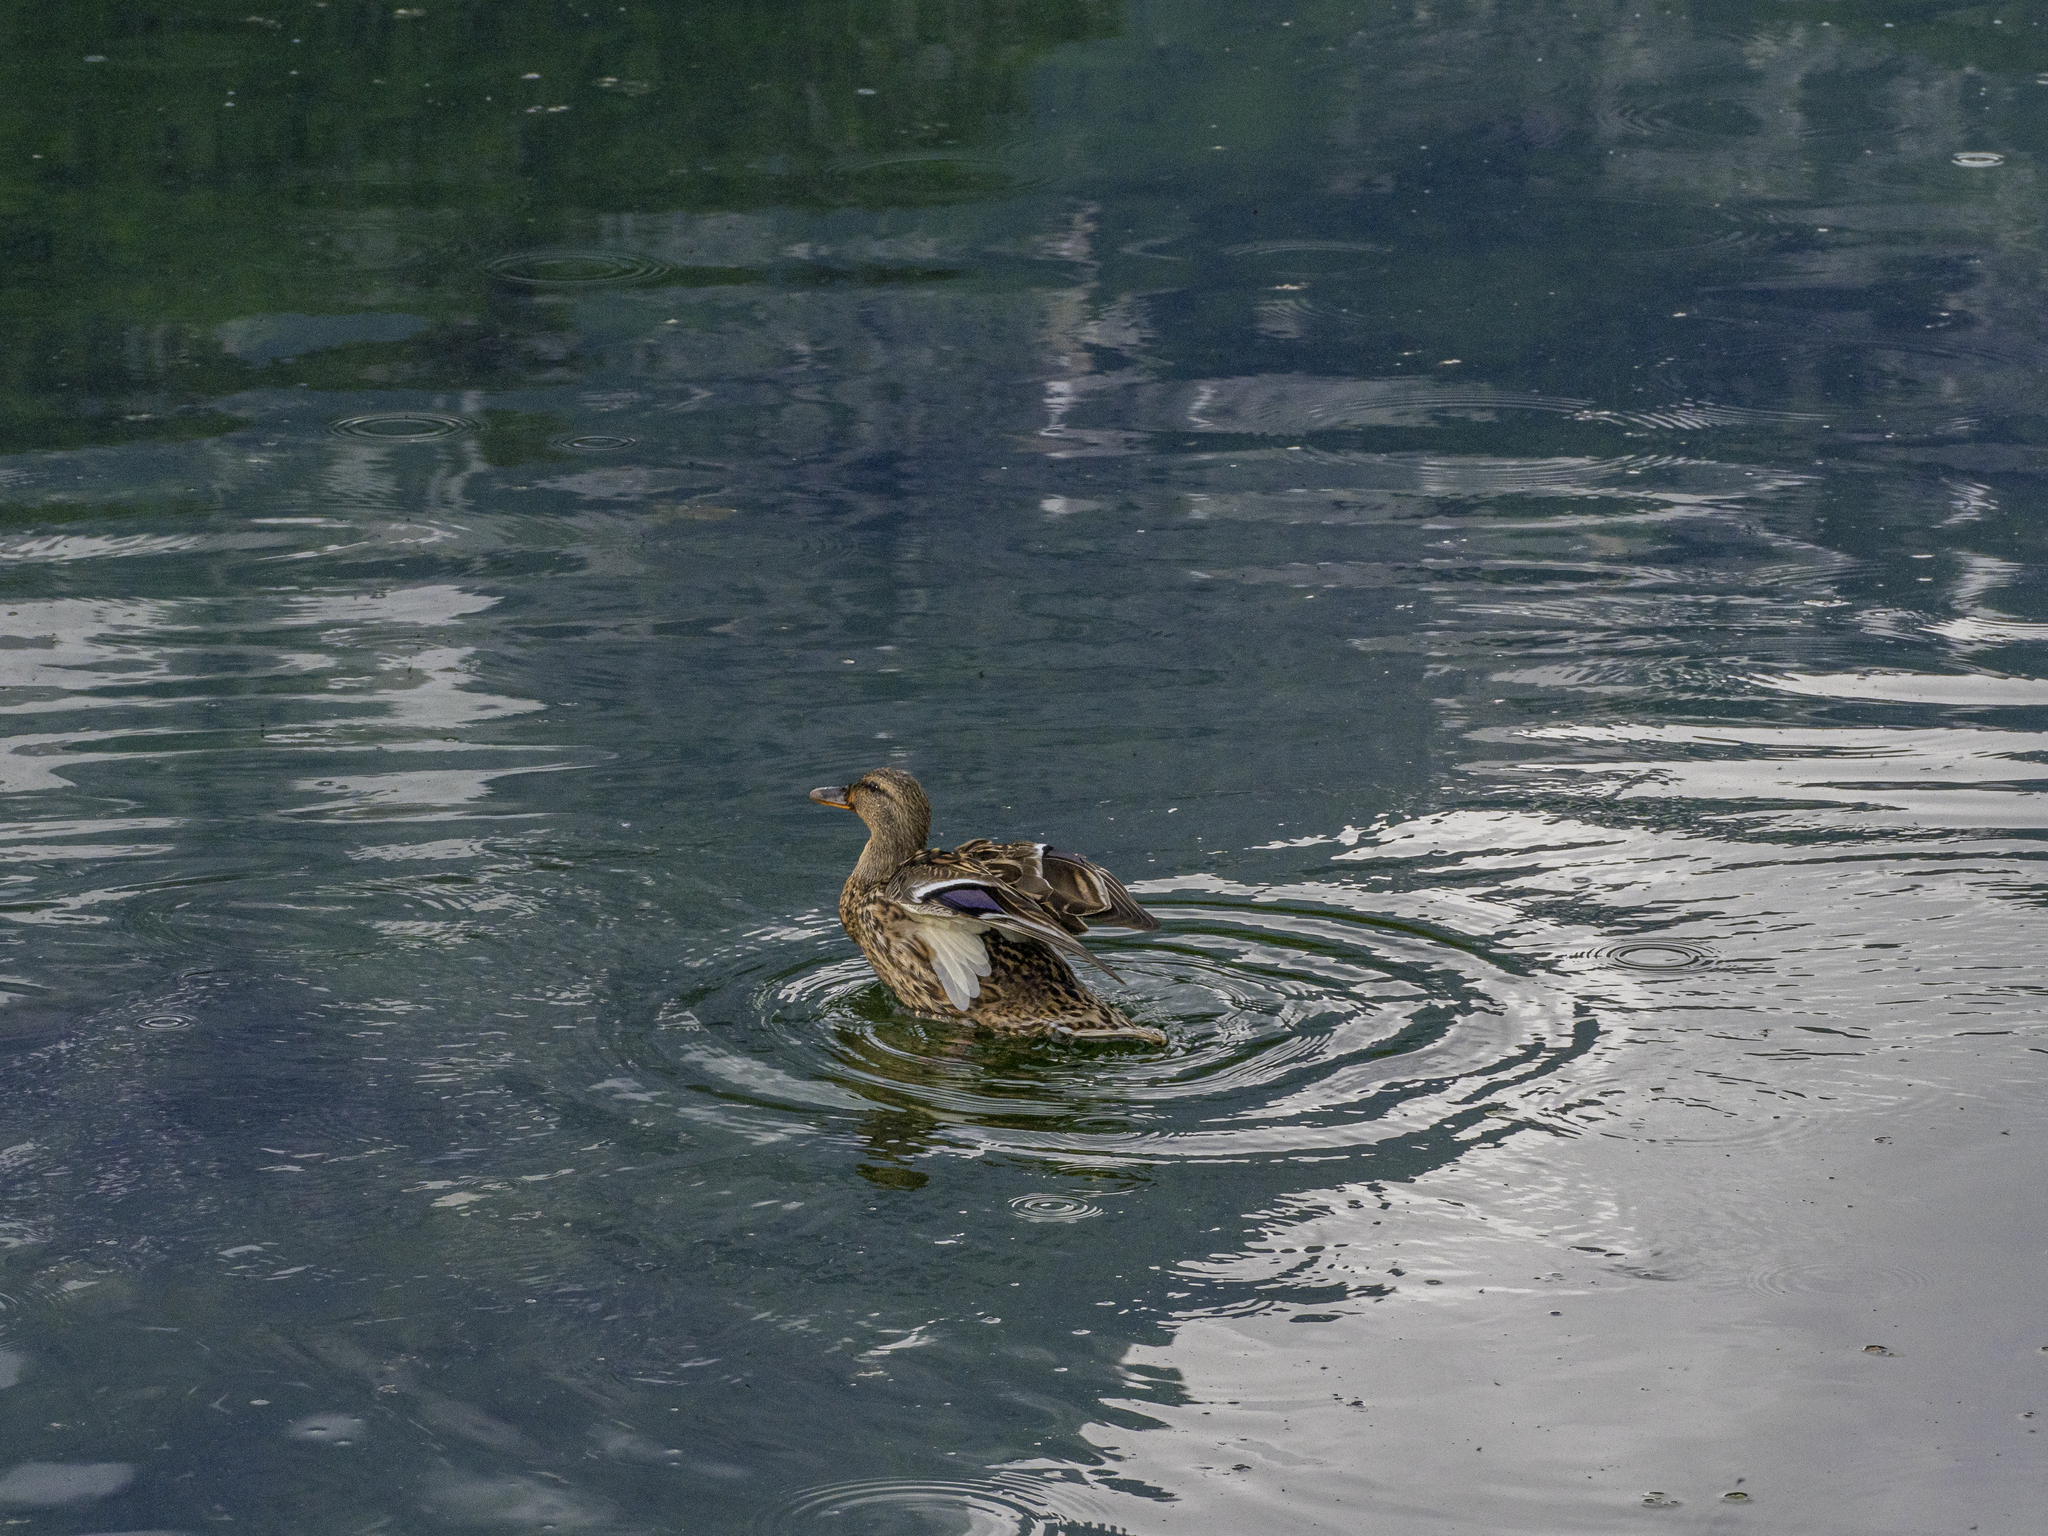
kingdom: Animalia
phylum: Chordata
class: Aves
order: Anseriformes
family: Anatidae
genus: Anas
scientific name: Anas platyrhynchos
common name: Mallard
